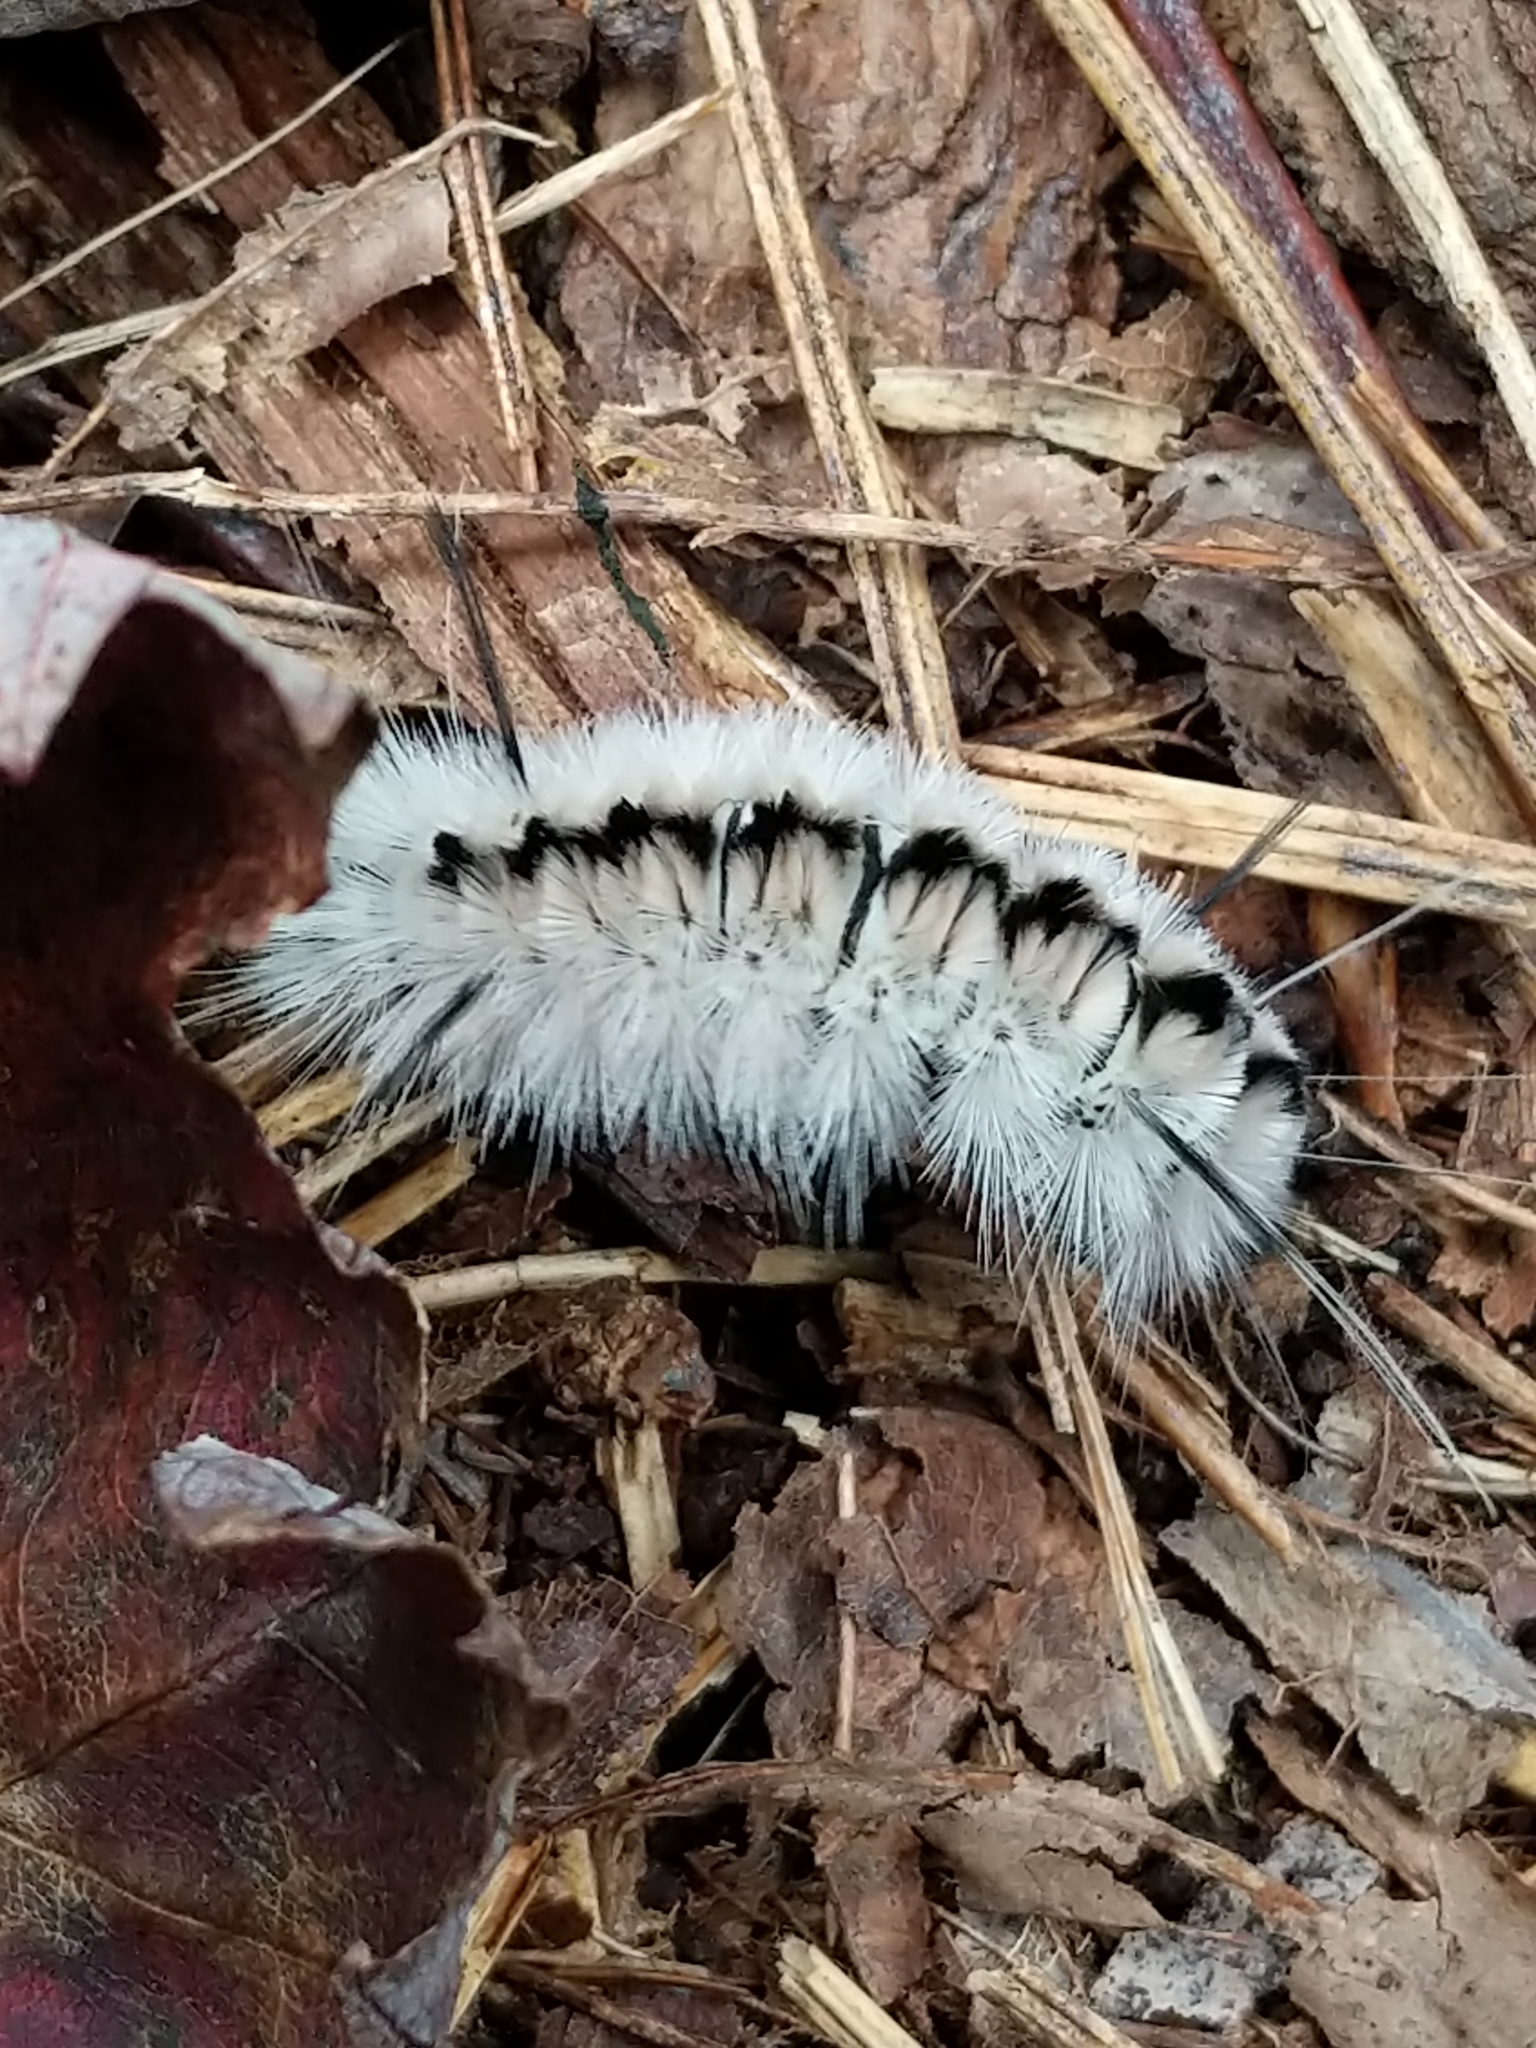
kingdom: Animalia
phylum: Arthropoda
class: Insecta
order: Lepidoptera
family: Erebidae
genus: Lophocampa
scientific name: Lophocampa caryae
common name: Hickory tussock moth
